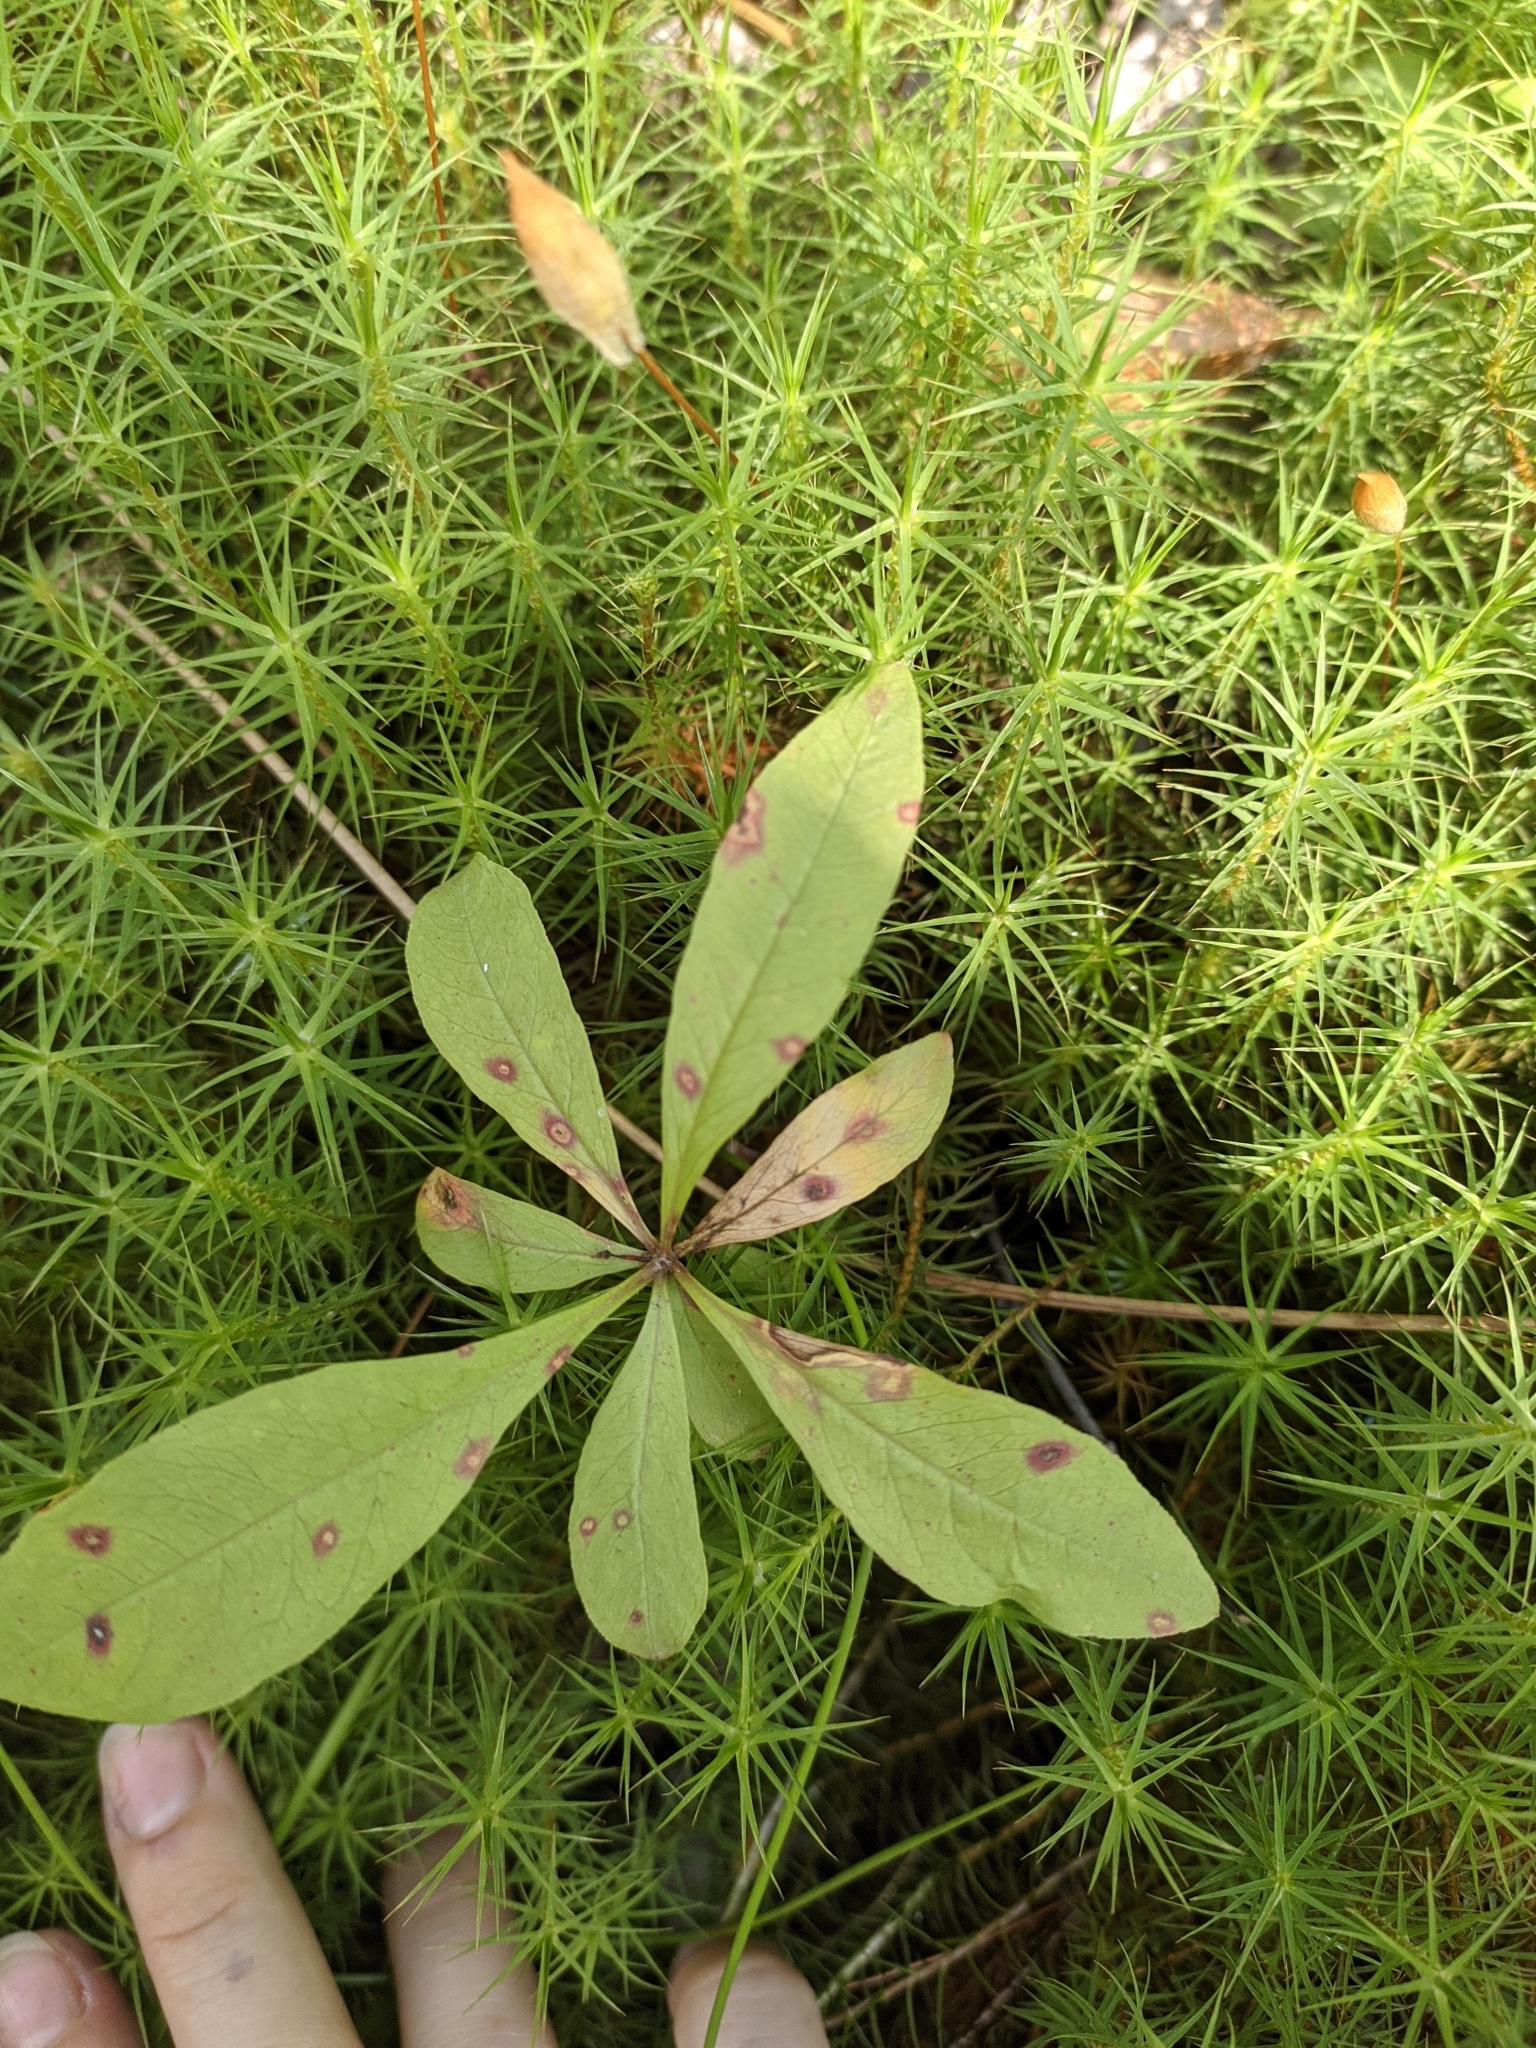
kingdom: Plantae
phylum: Tracheophyta
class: Magnoliopsida
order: Ericales
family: Primulaceae
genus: Lysimachia
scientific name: Lysimachia europaea
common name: Arctic starflower
